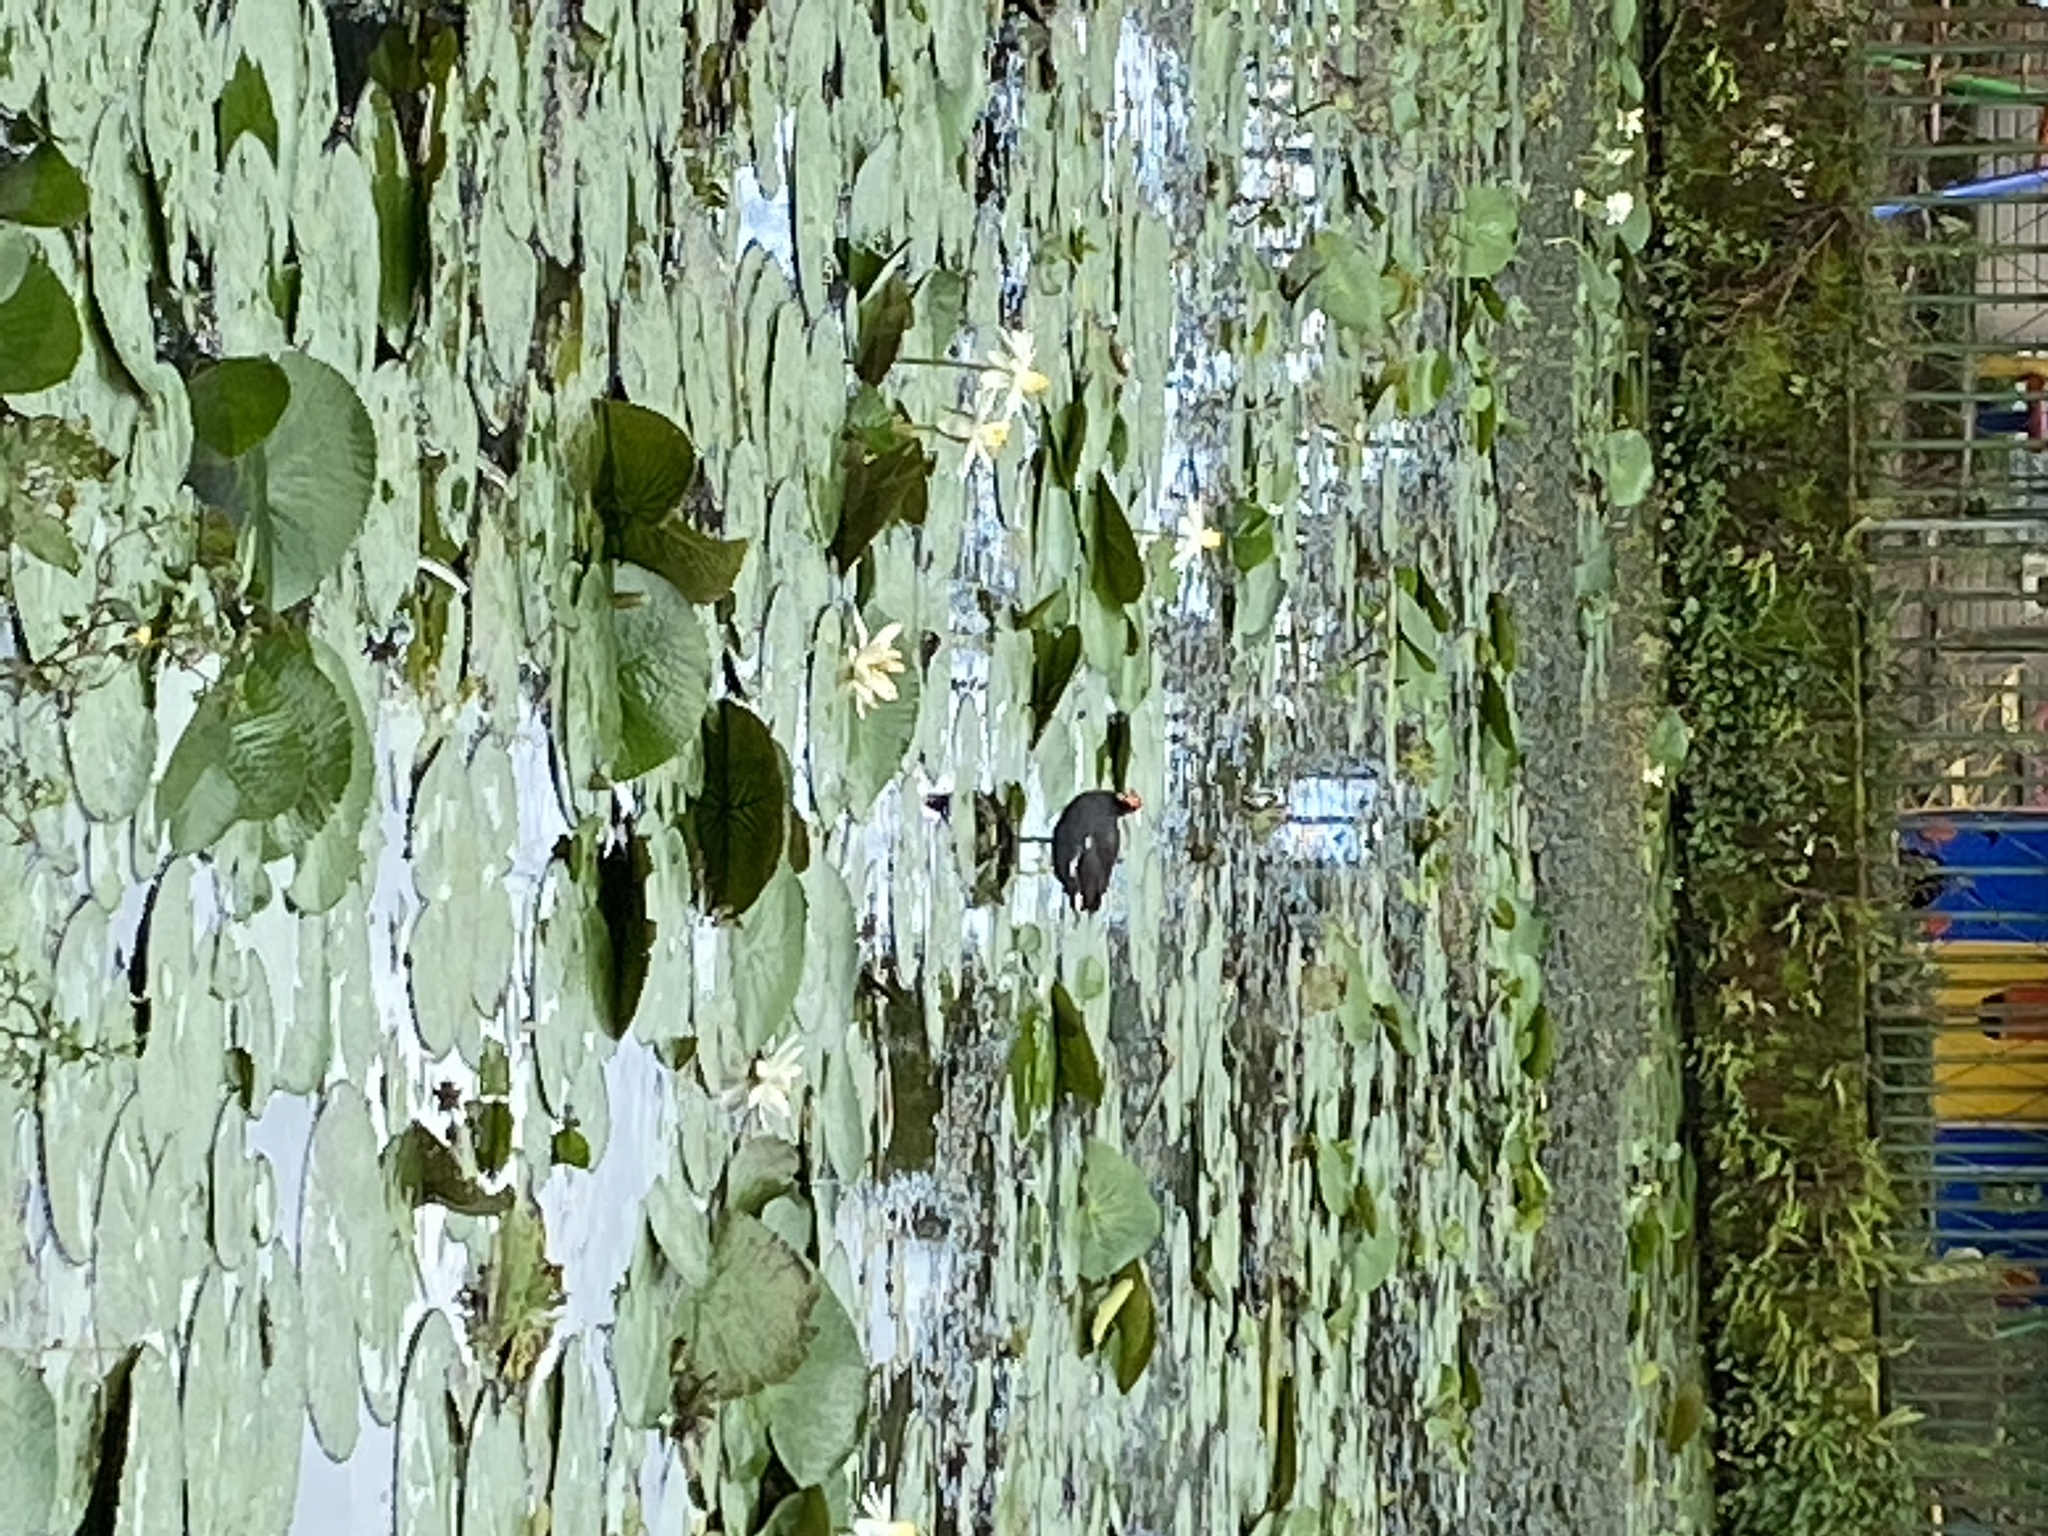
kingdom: Animalia
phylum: Chordata
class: Aves
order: Gruiformes
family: Rallidae
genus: Gallinula
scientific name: Gallinula chloropus
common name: Common moorhen
